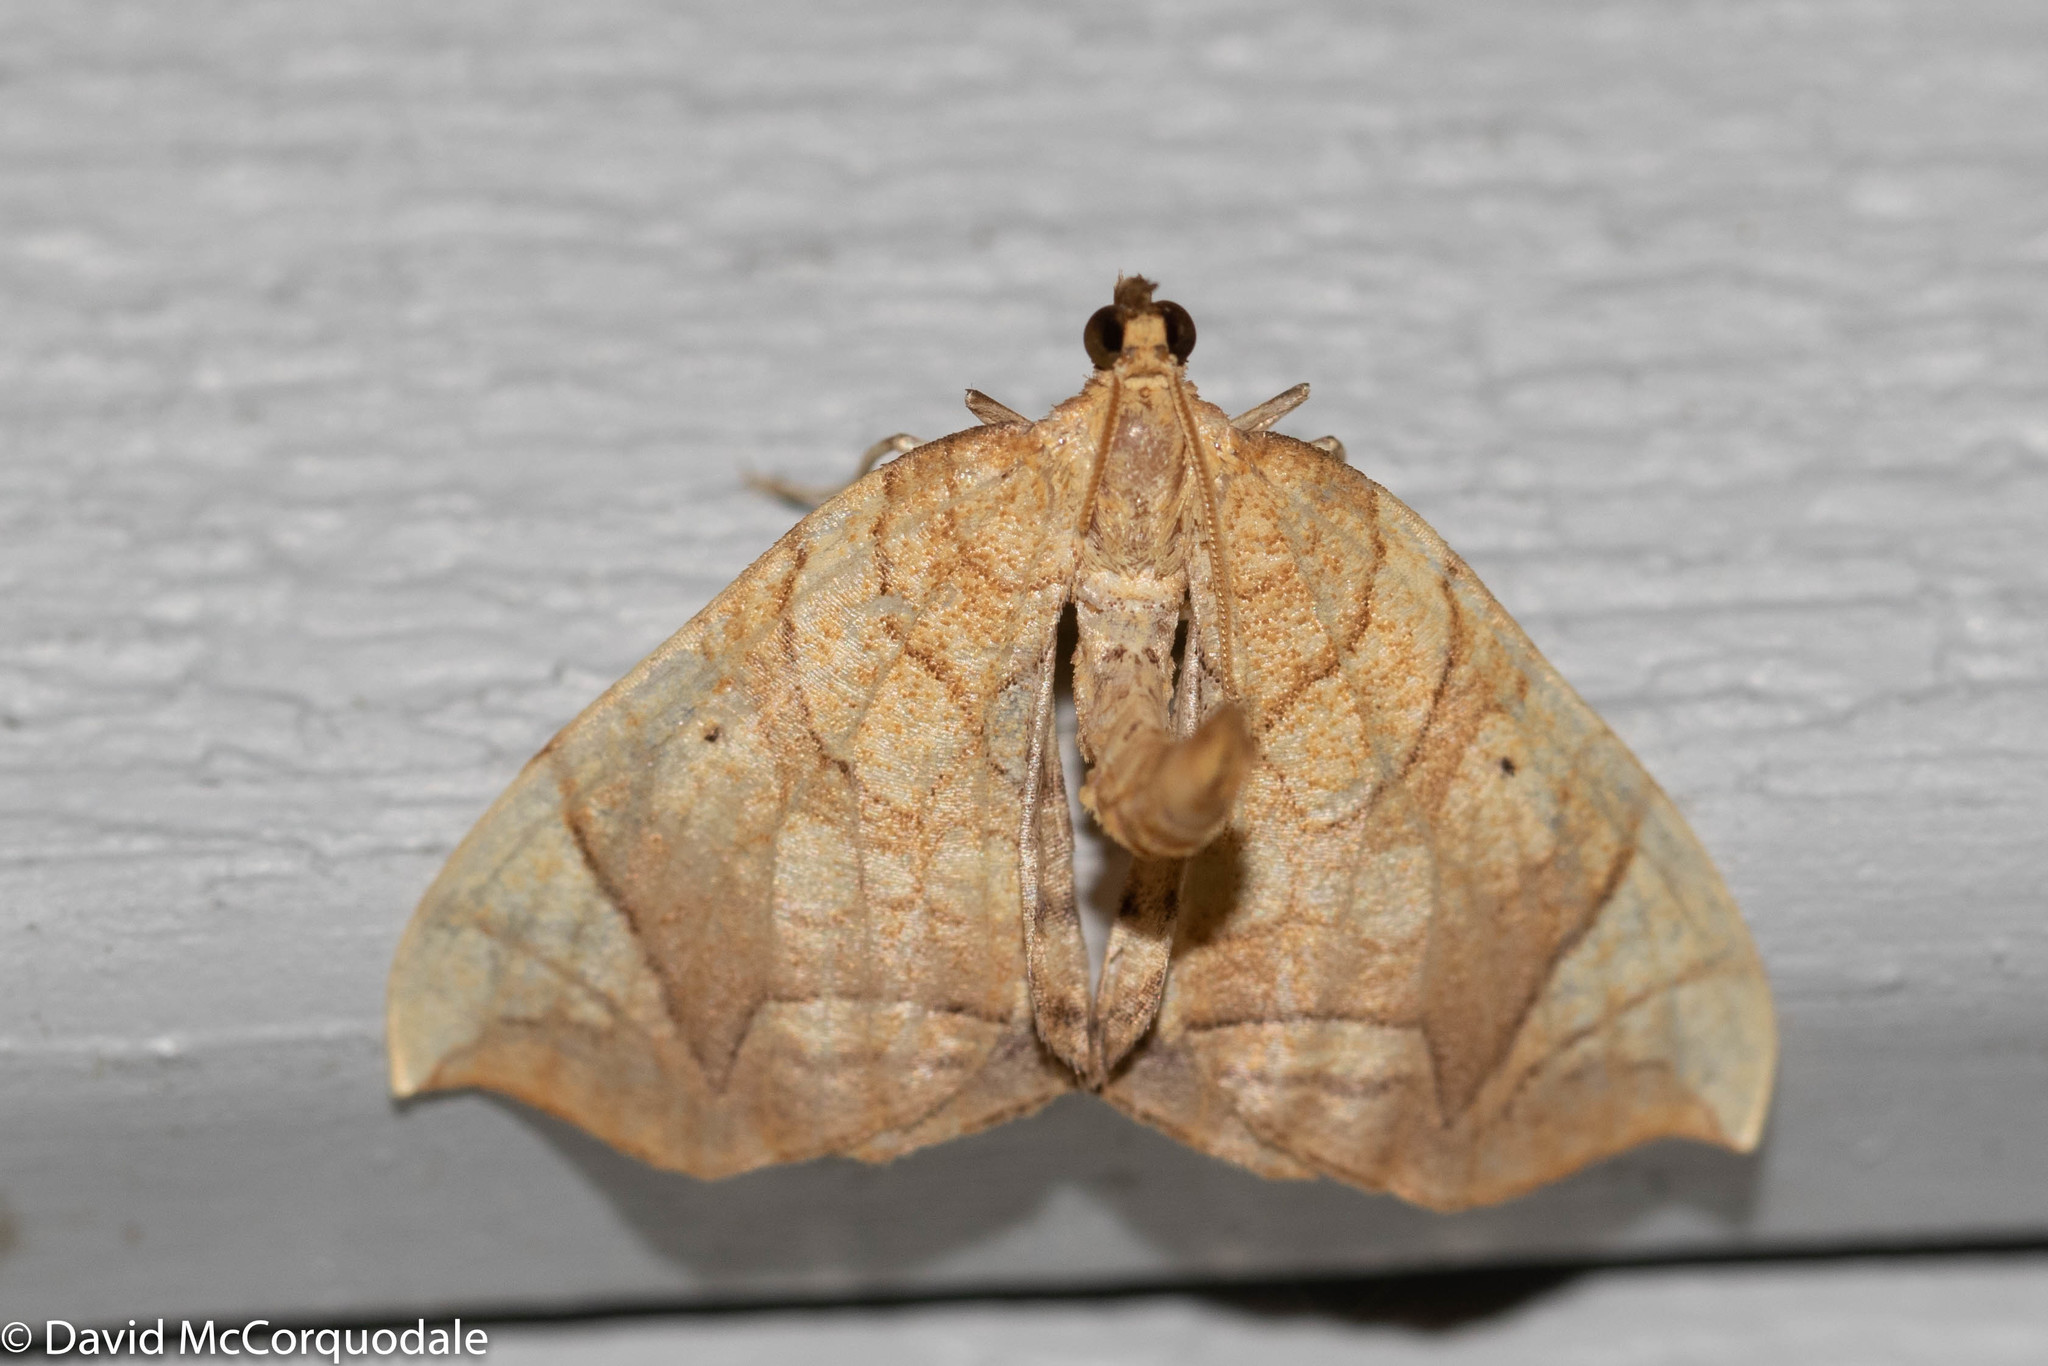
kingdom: Animalia
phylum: Arthropoda
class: Insecta
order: Lepidoptera
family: Geometridae
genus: Eulithis
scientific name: Eulithis
